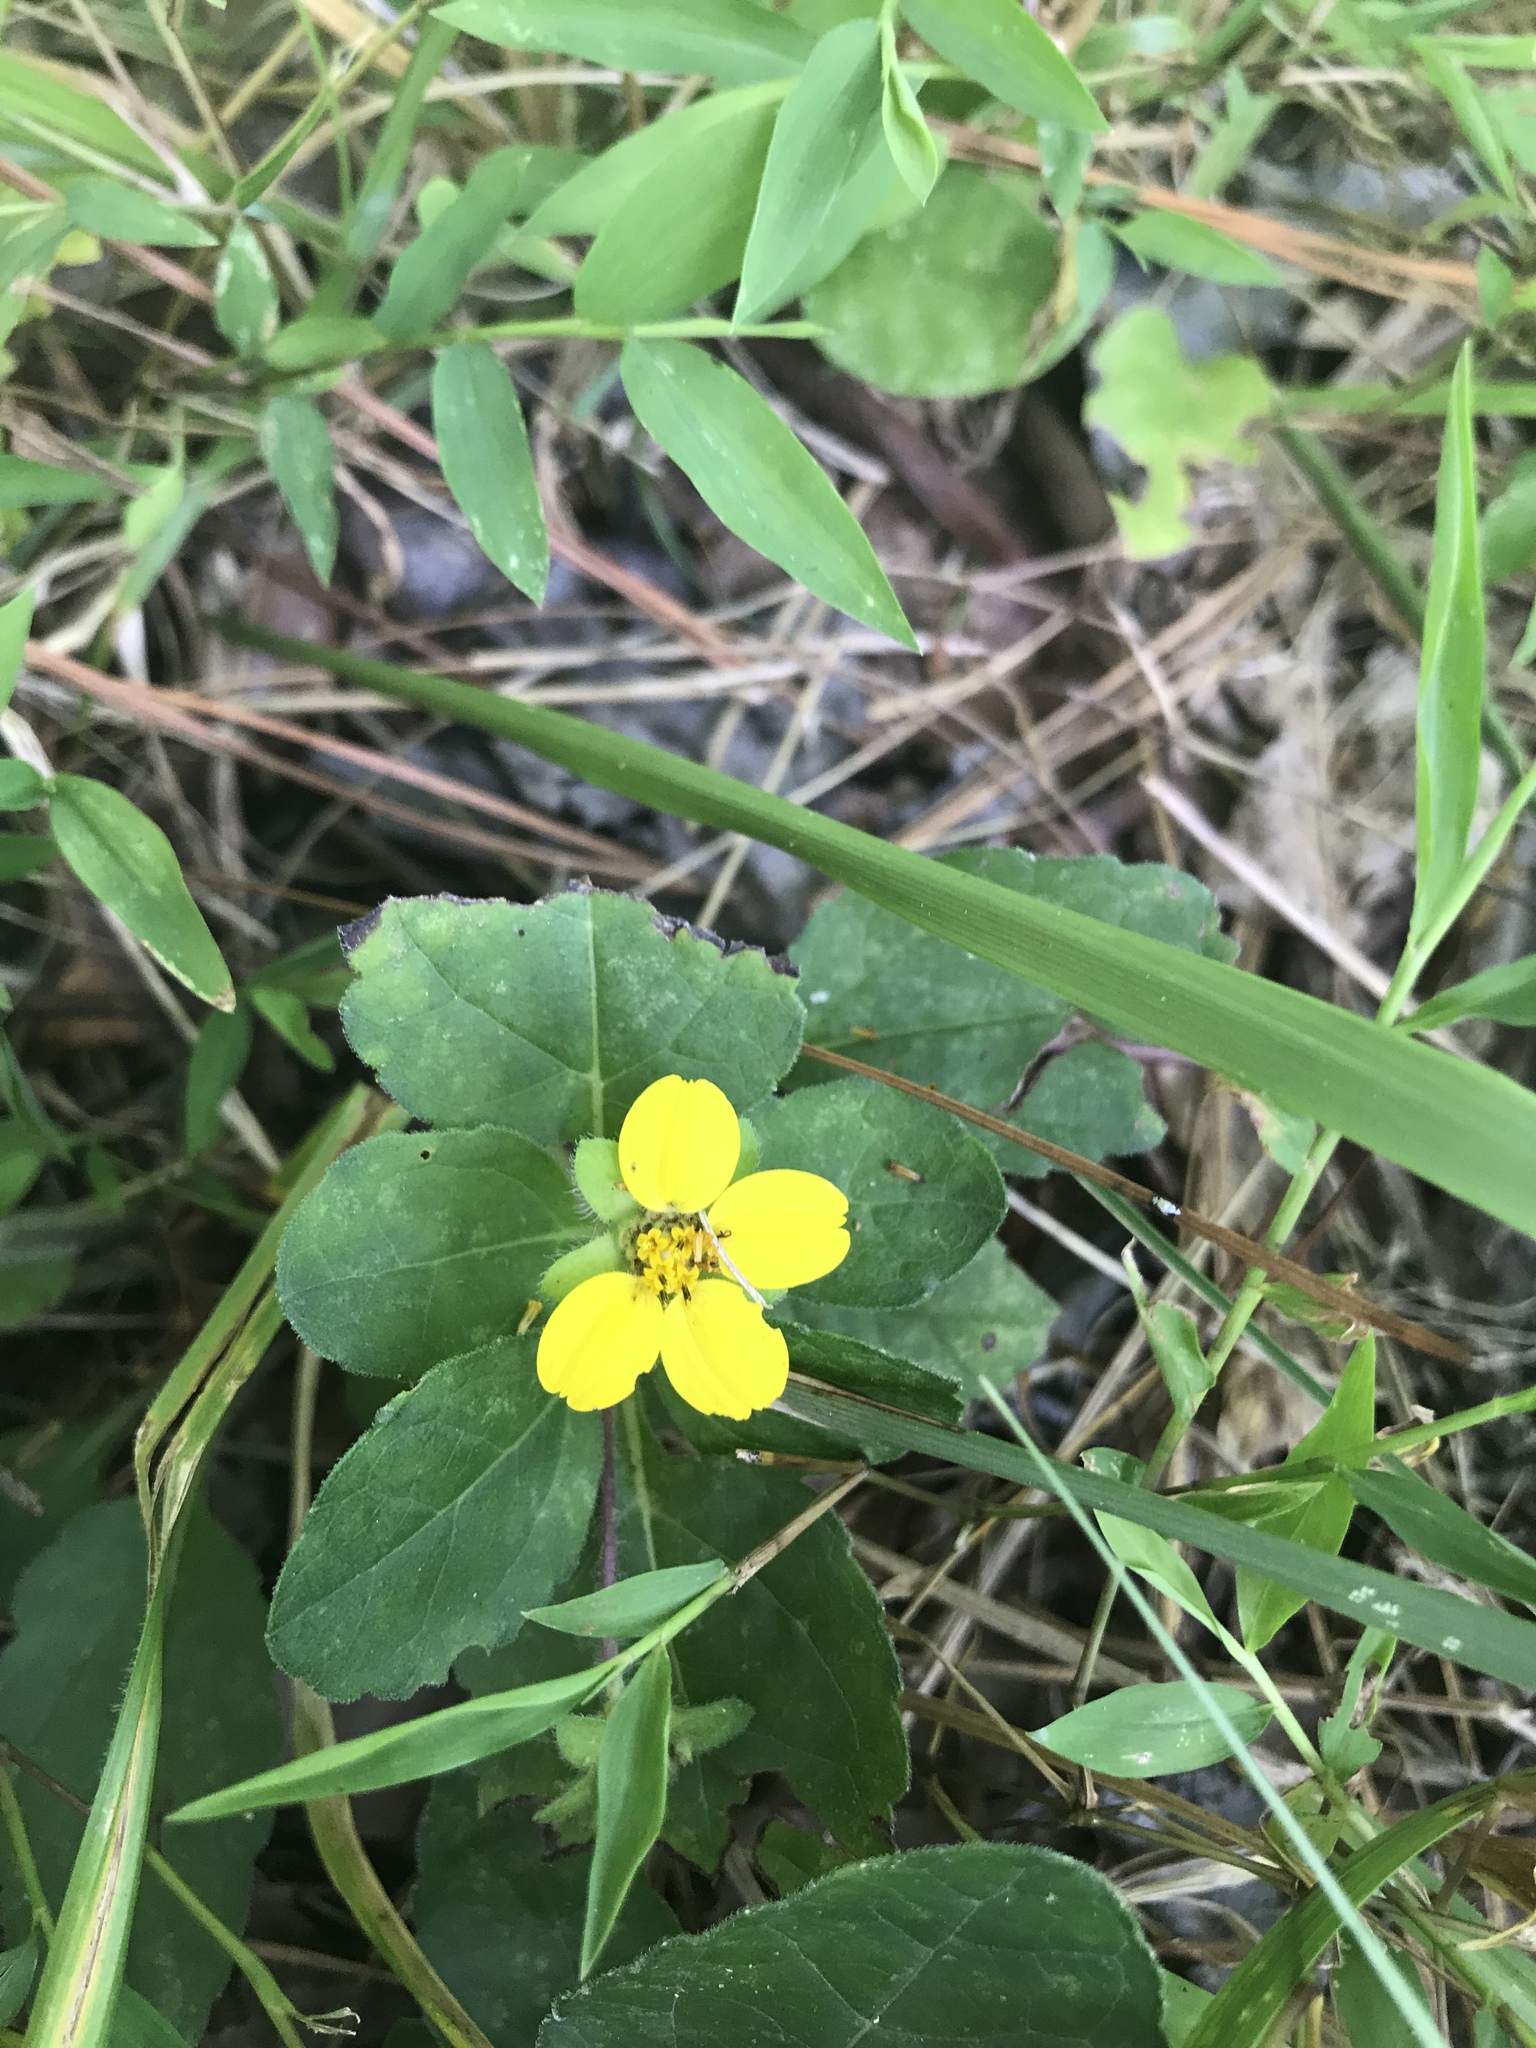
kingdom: Plantae
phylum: Tracheophyta
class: Magnoliopsida
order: Asterales
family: Asteraceae
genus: Chrysogonum
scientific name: Chrysogonum virginianum
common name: Golden-knee
